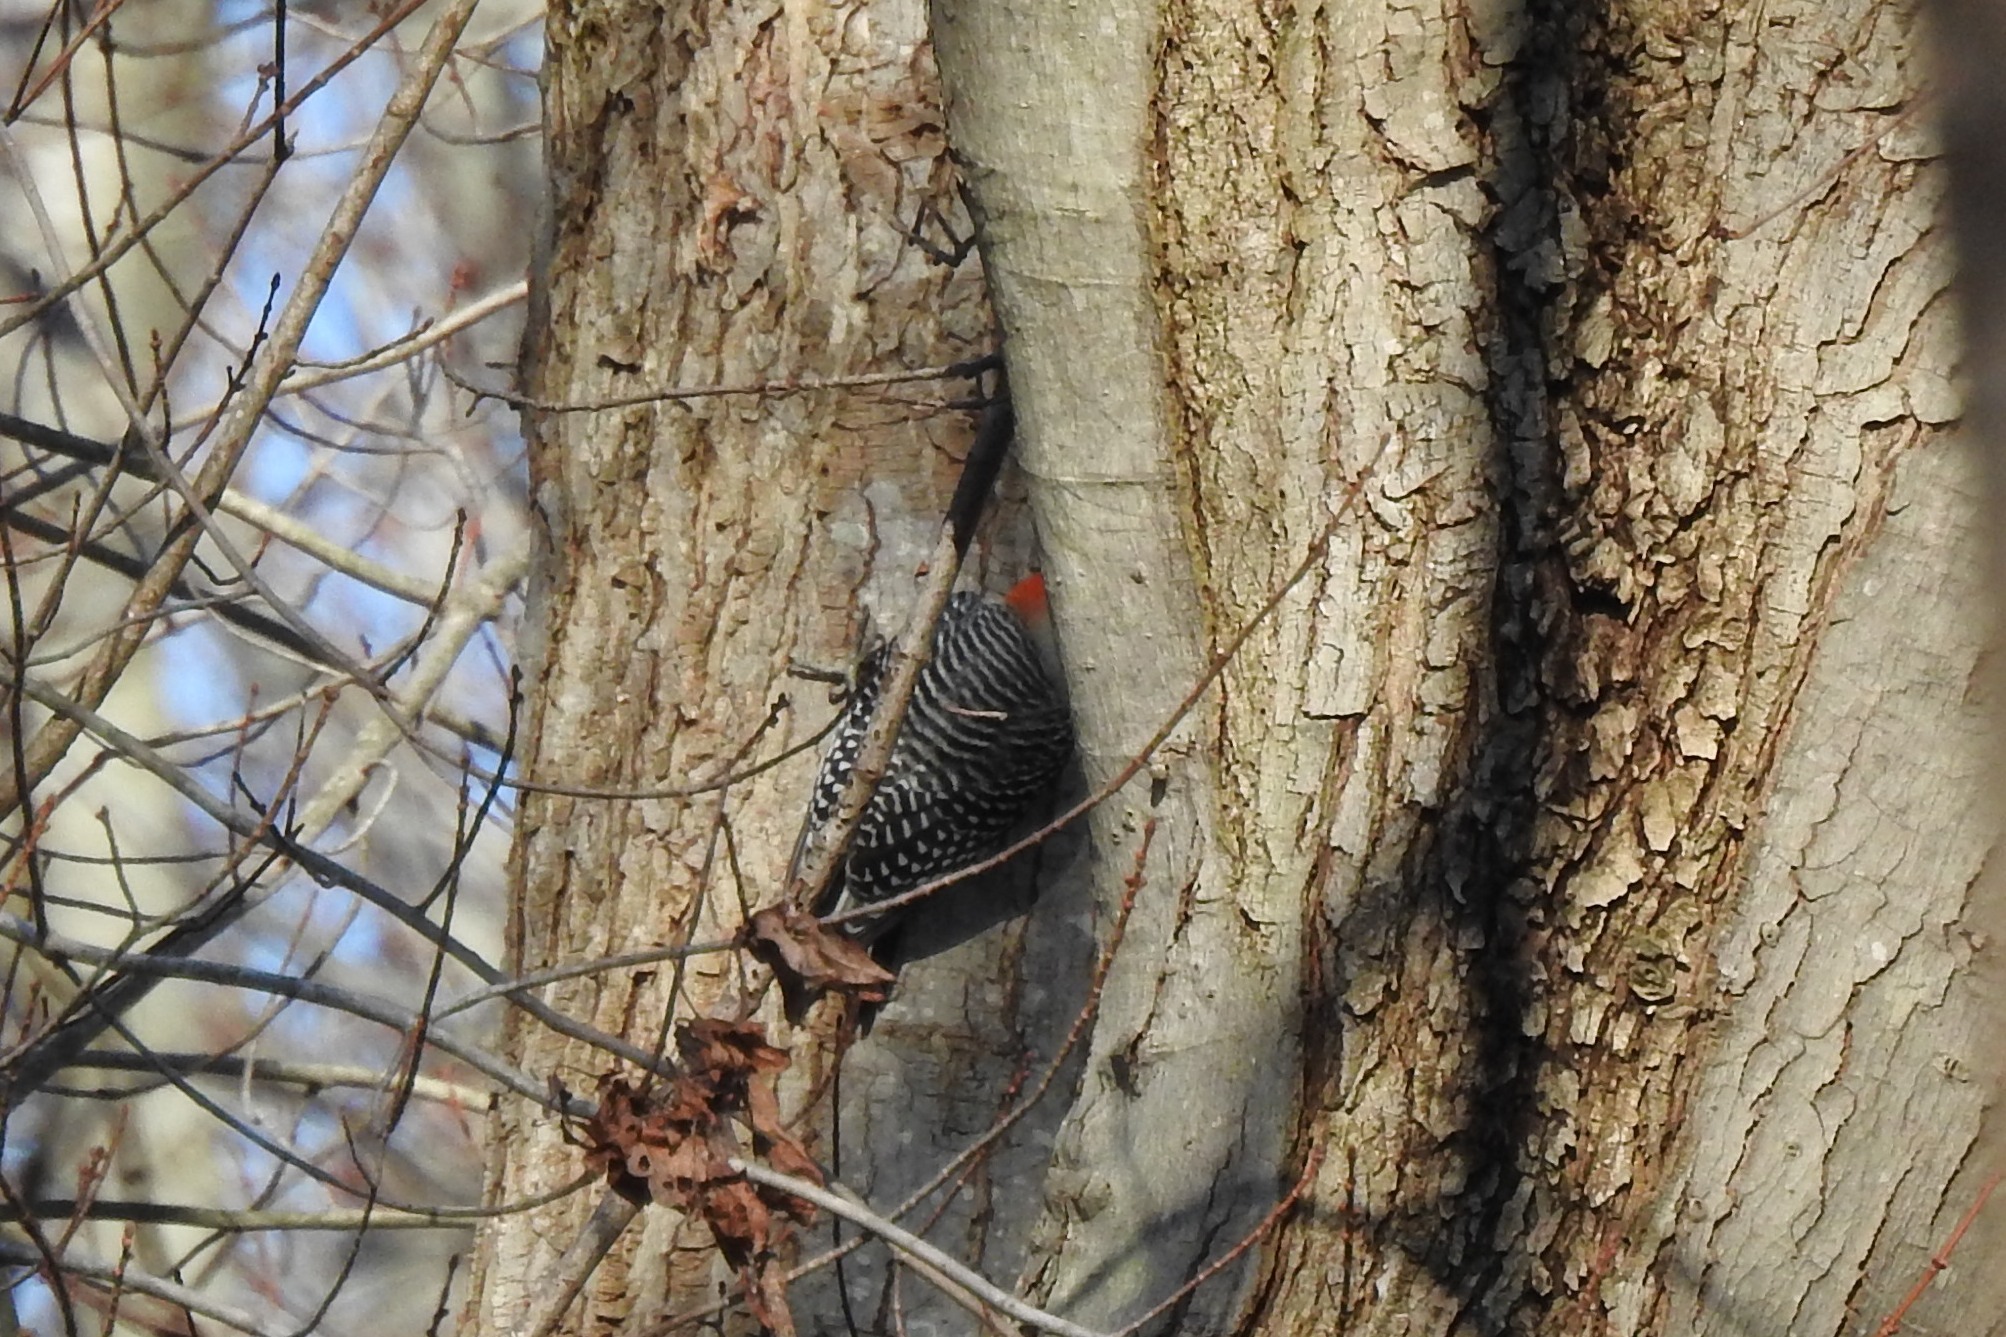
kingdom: Animalia
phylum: Chordata
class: Aves
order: Piciformes
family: Picidae
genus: Melanerpes
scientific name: Melanerpes carolinus
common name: Red-bellied woodpecker
